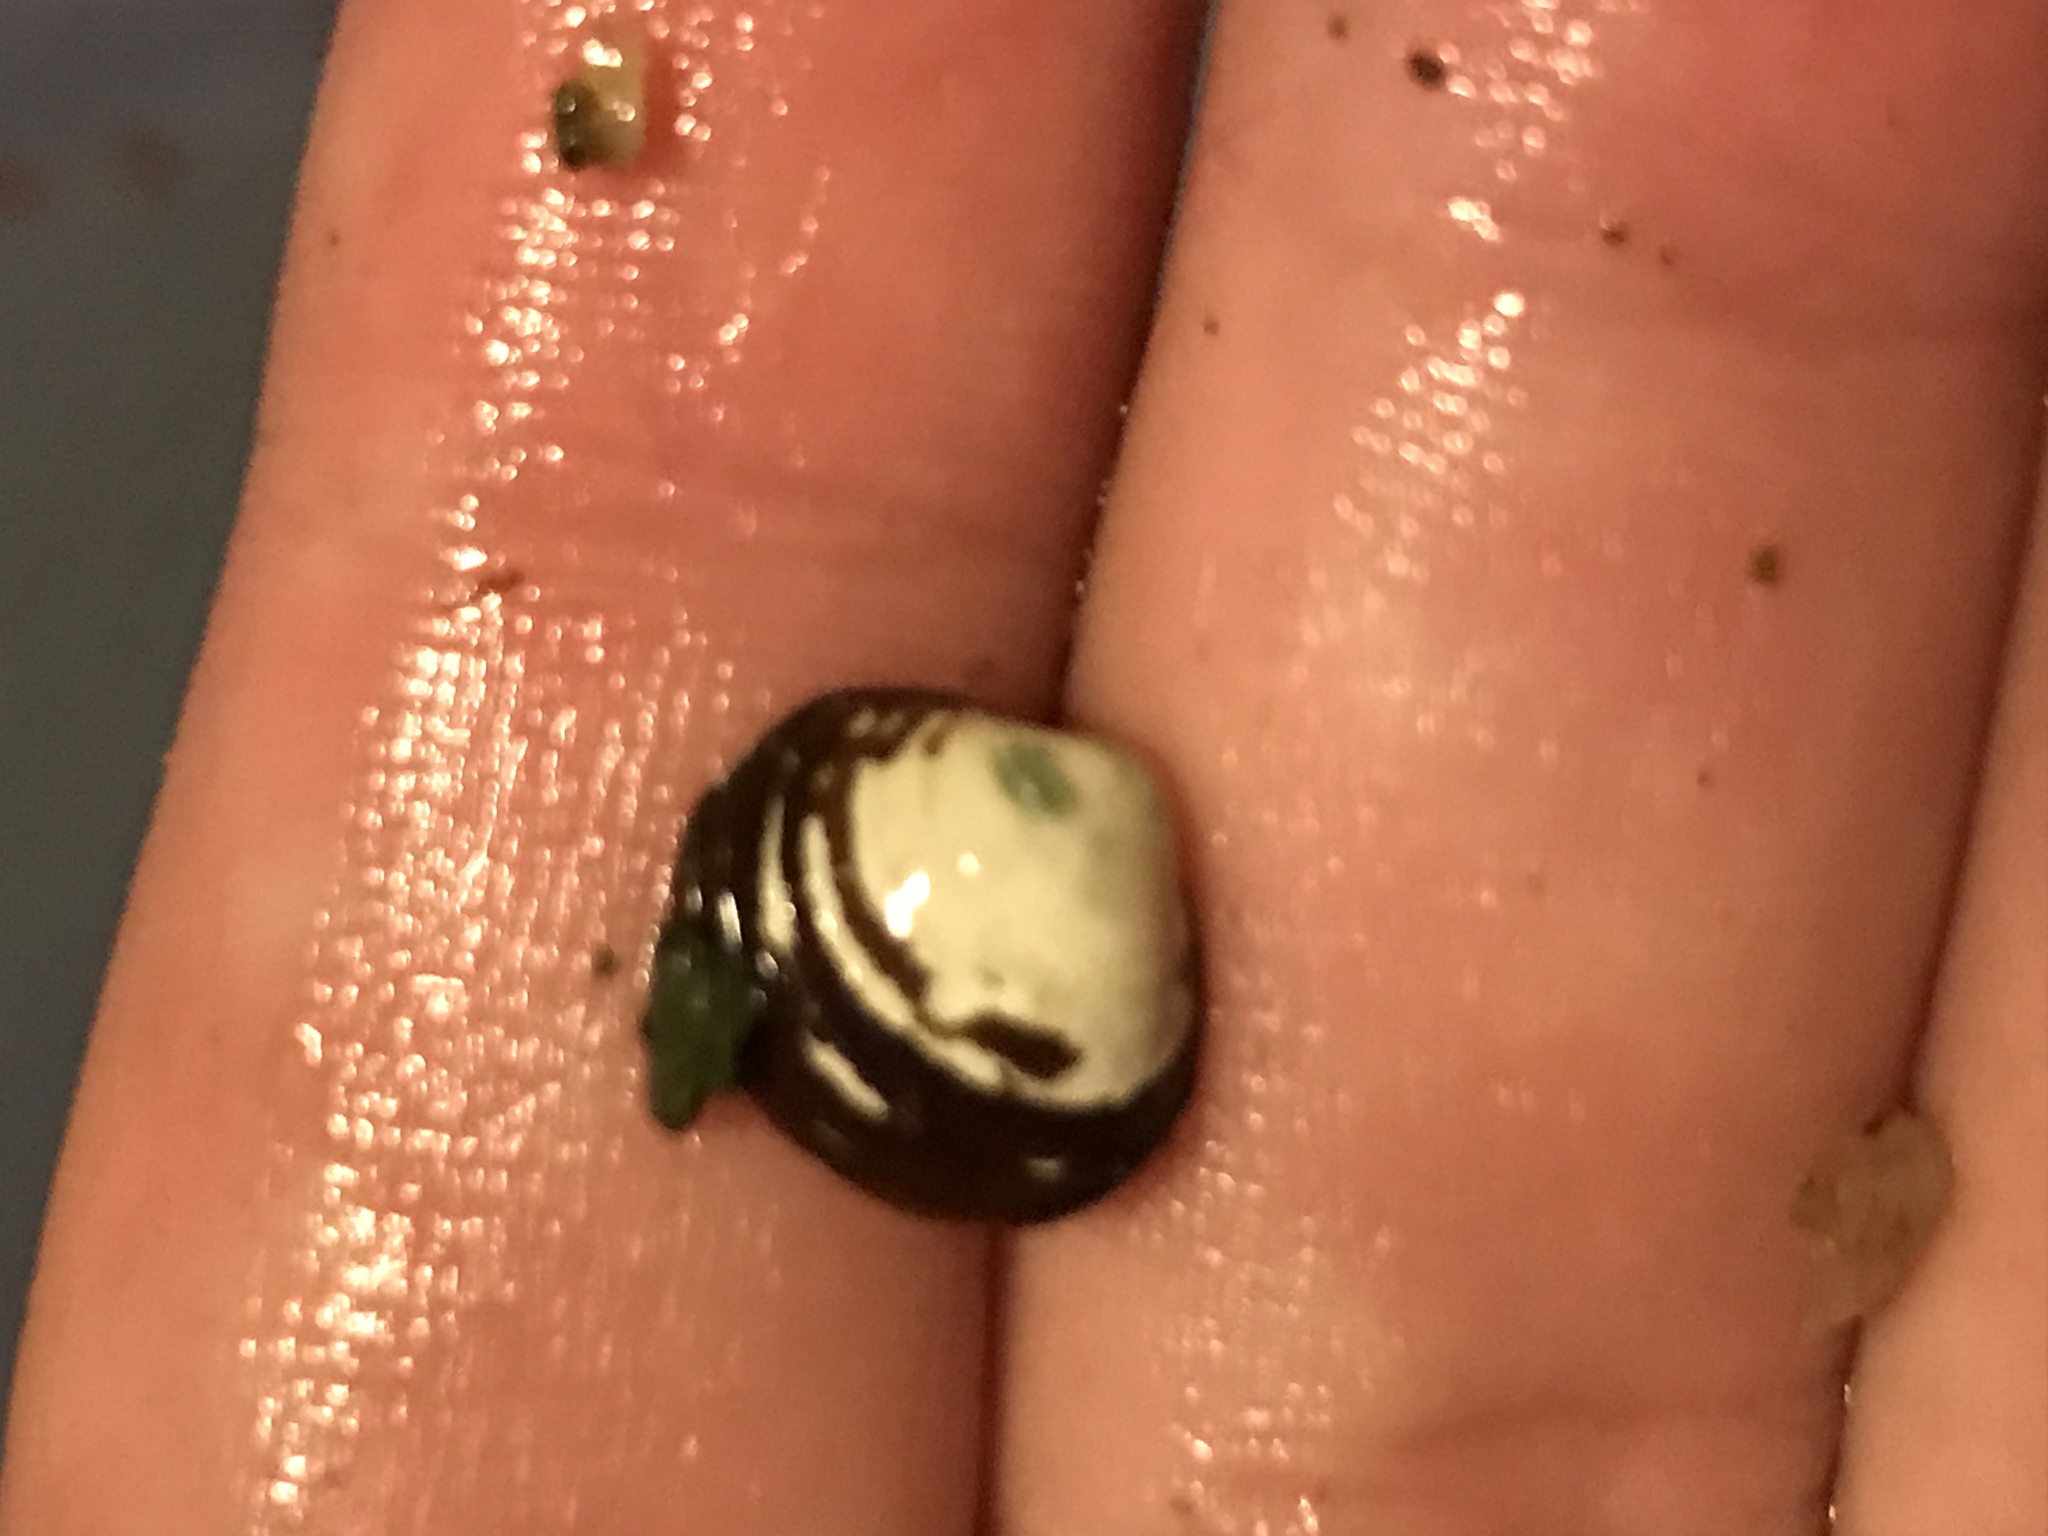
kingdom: Animalia
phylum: Mollusca
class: Bivalvia
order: Venerida
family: Cyrenidae
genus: Corbicula
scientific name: Corbicula fluminea
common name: Asian clam
